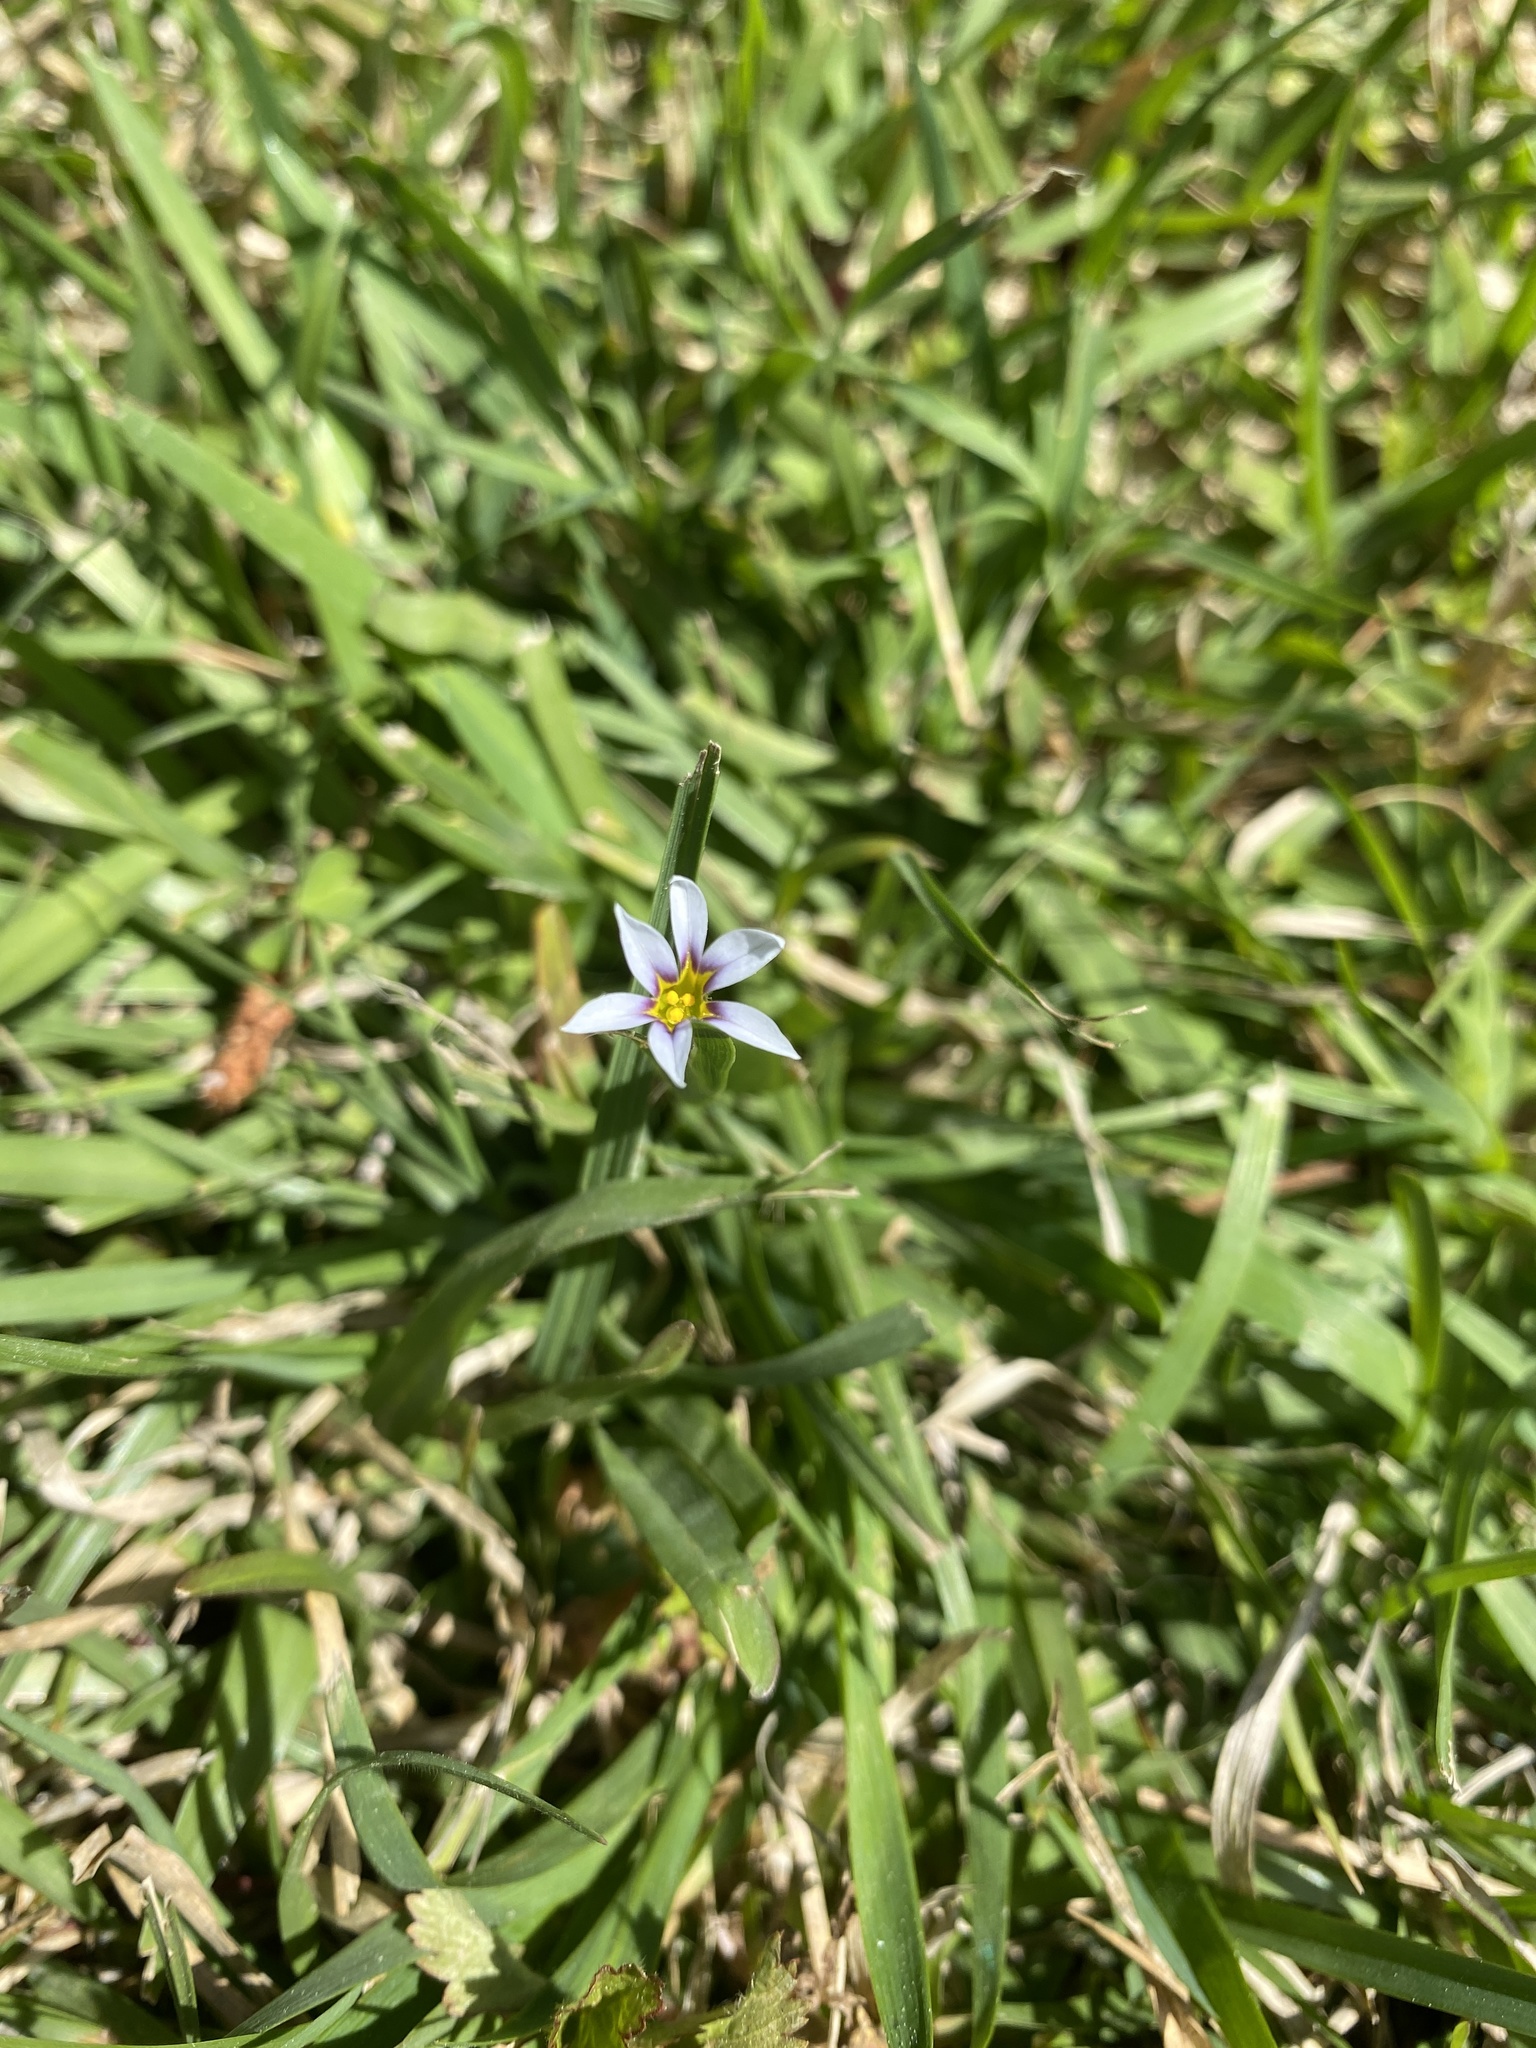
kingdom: Plantae
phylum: Tracheophyta
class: Liliopsida
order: Asparagales
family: Iridaceae
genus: Sisyrinchium
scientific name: Sisyrinchium micranthum
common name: Bermuda pigroot
